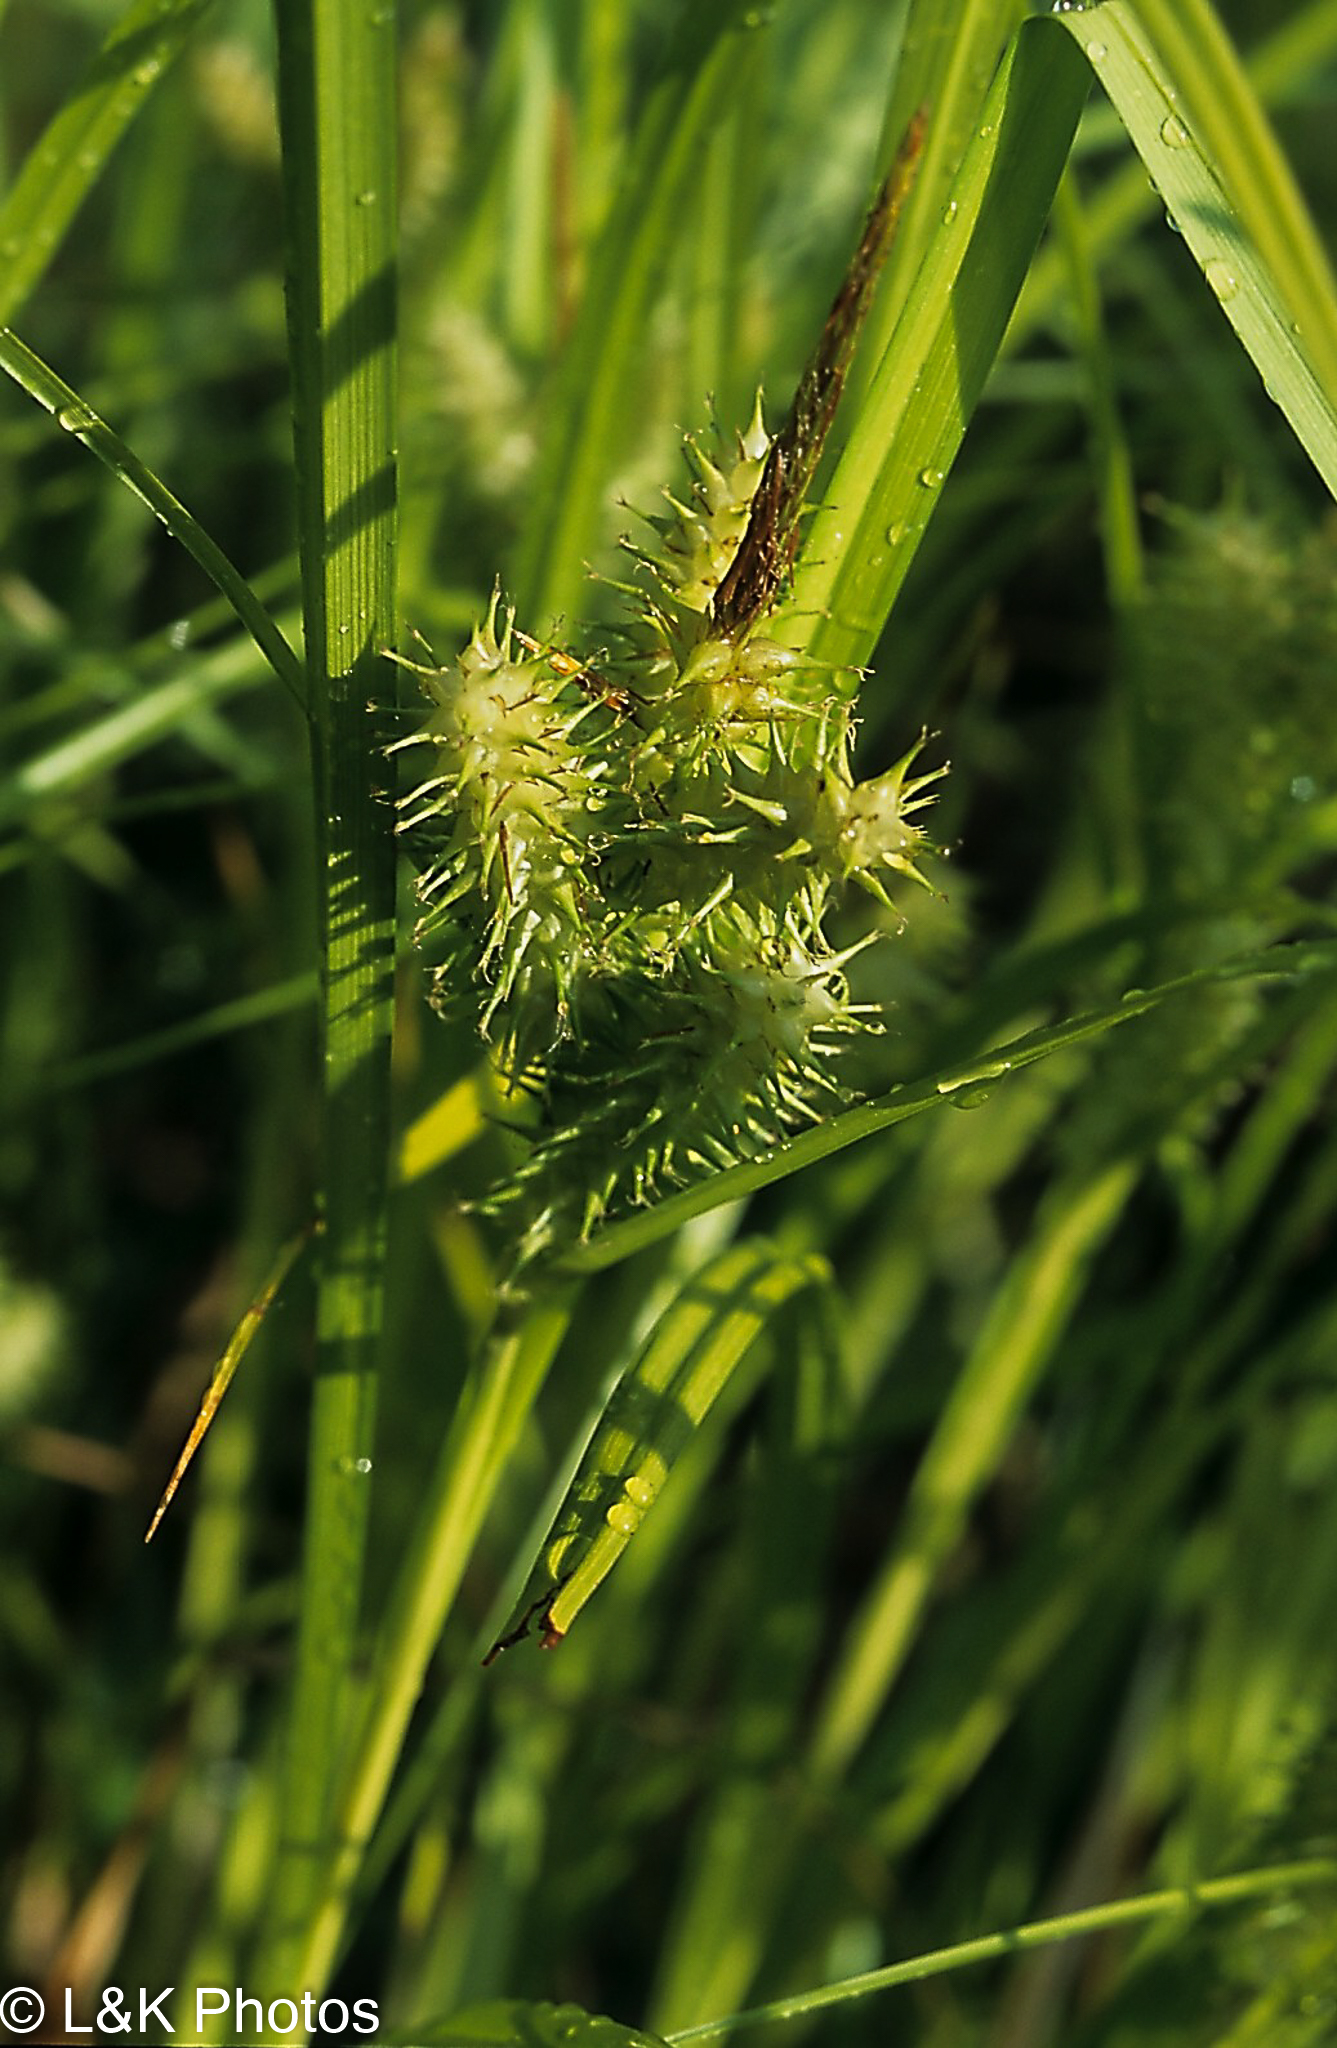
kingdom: Plantae
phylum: Tracheophyta
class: Liliopsida
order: Poales
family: Cyperaceae
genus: Carex
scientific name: Carex retrorsa
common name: Knot-sheath sedge
